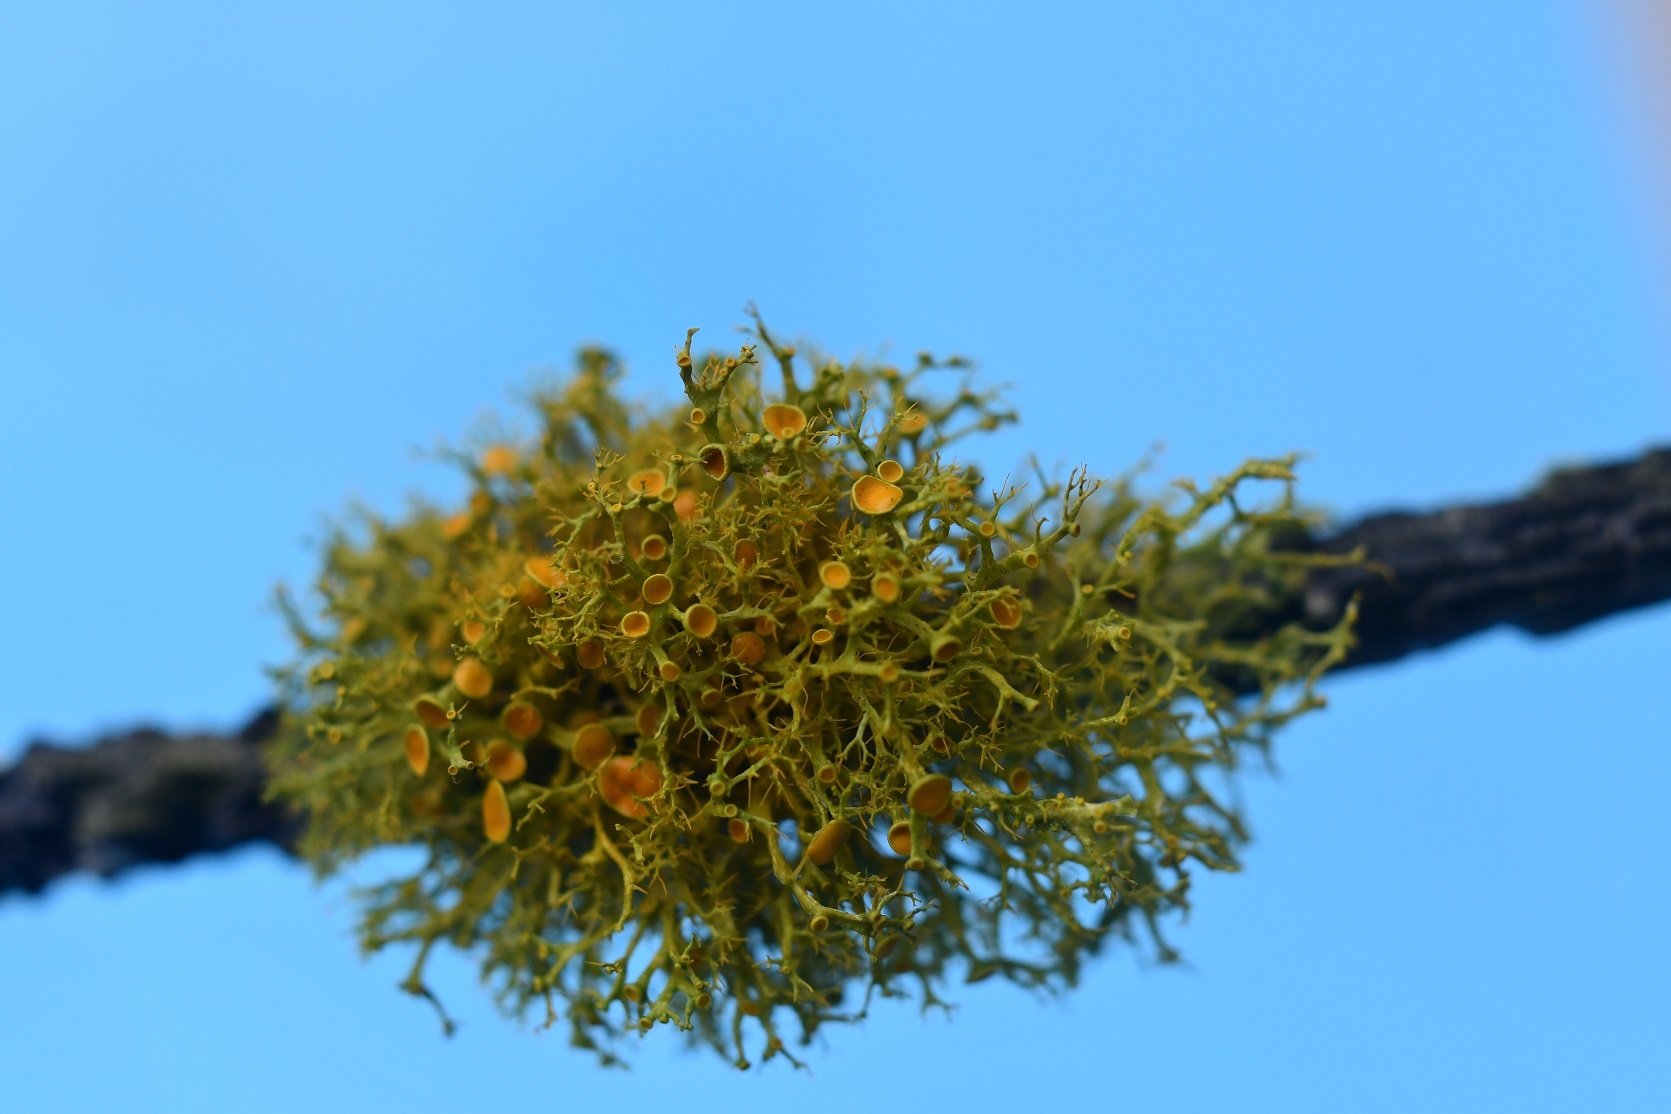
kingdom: Fungi
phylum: Ascomycota
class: Lecanoromycetes
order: Teloschistales
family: Teloschistaceae
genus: Teloschistes
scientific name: Teloschistes exilis
